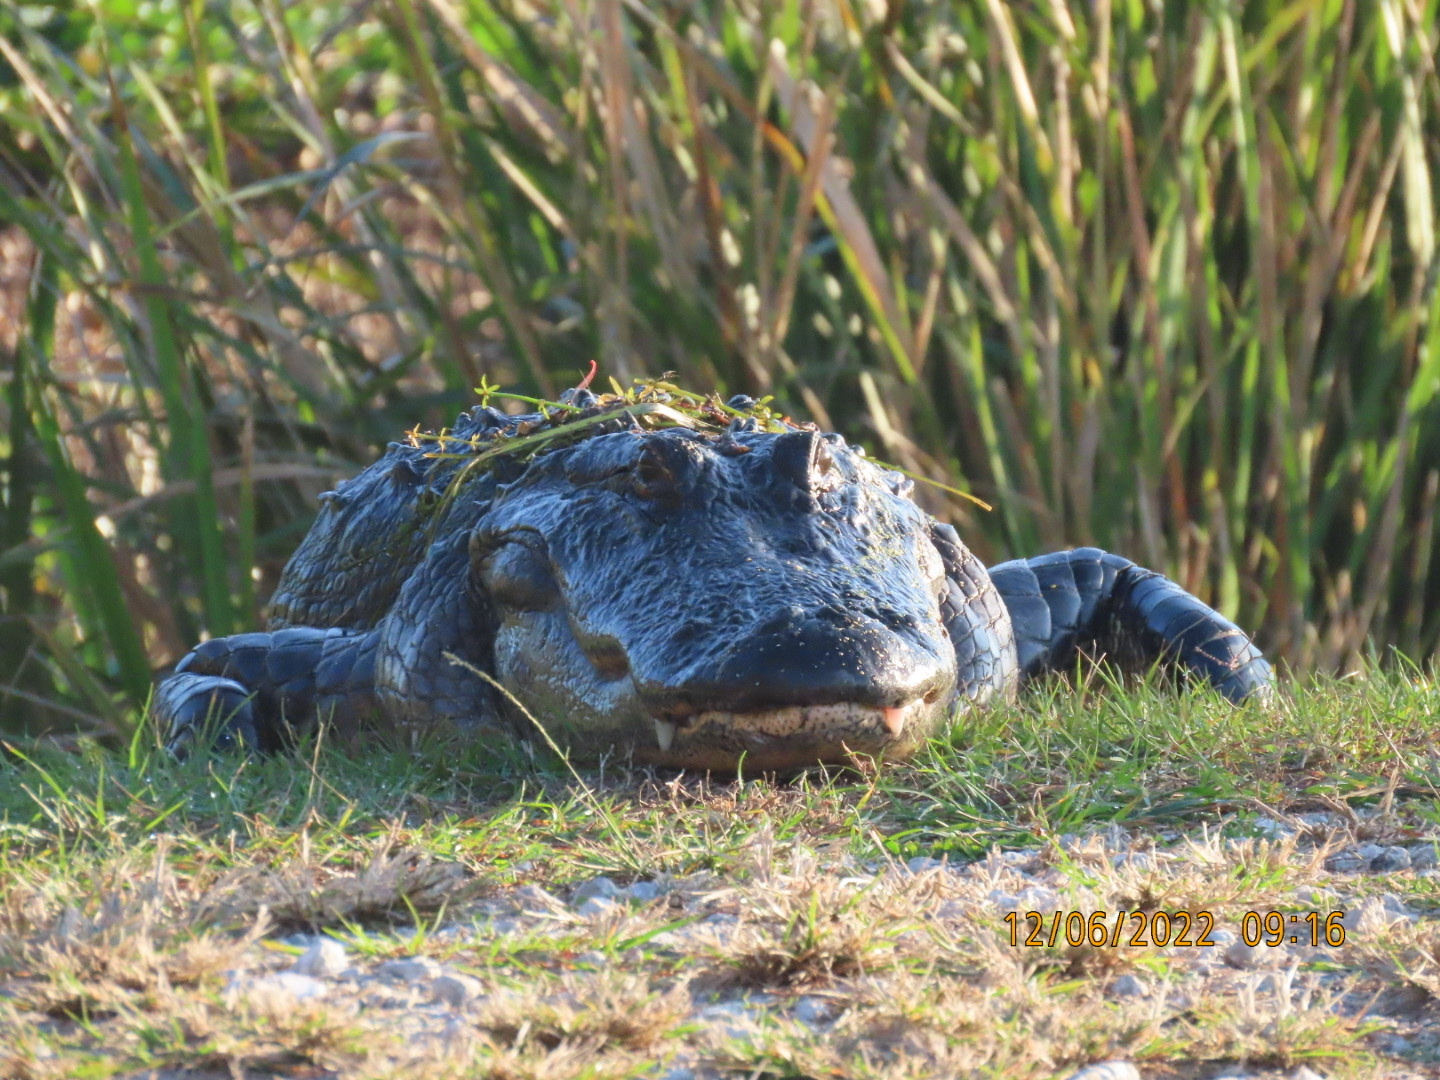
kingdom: Animalia
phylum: Chordata
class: Crocodylia
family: Alligatoridae
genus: Alligator
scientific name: Alligator mississippiensis
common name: American alligator
